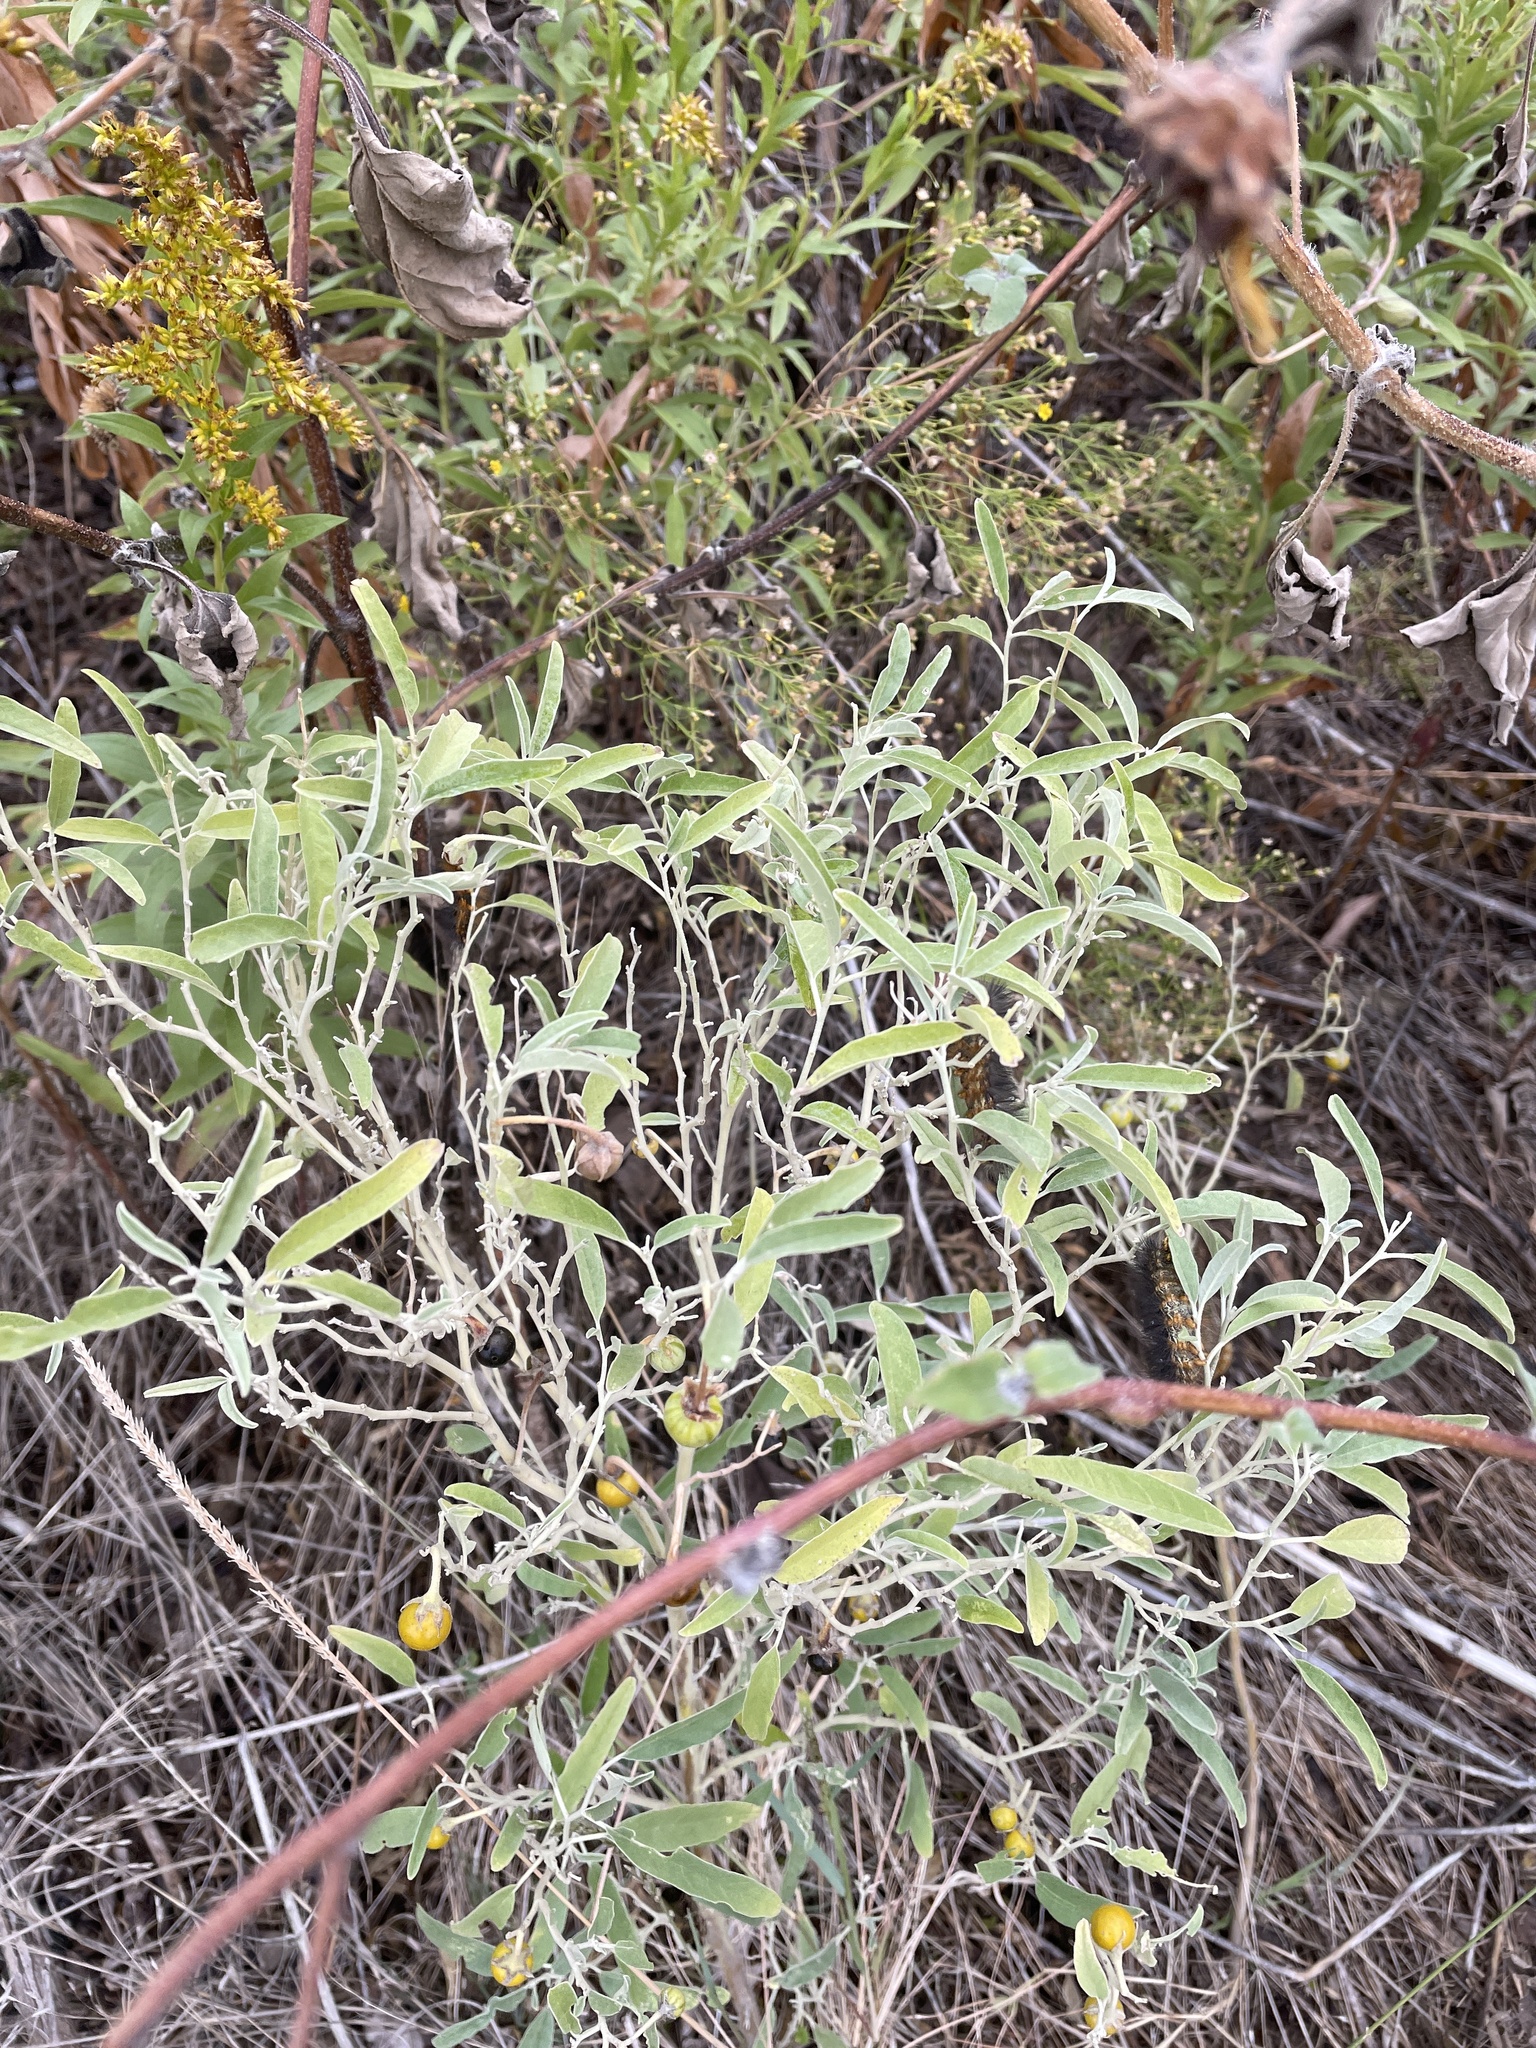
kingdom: Plantae
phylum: Tracheophyta
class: Magnoliopsida
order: Solanales
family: Solanaceae
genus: Solanum
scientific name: Solanum elaeagnifolium
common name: Silverleaf nightshade
